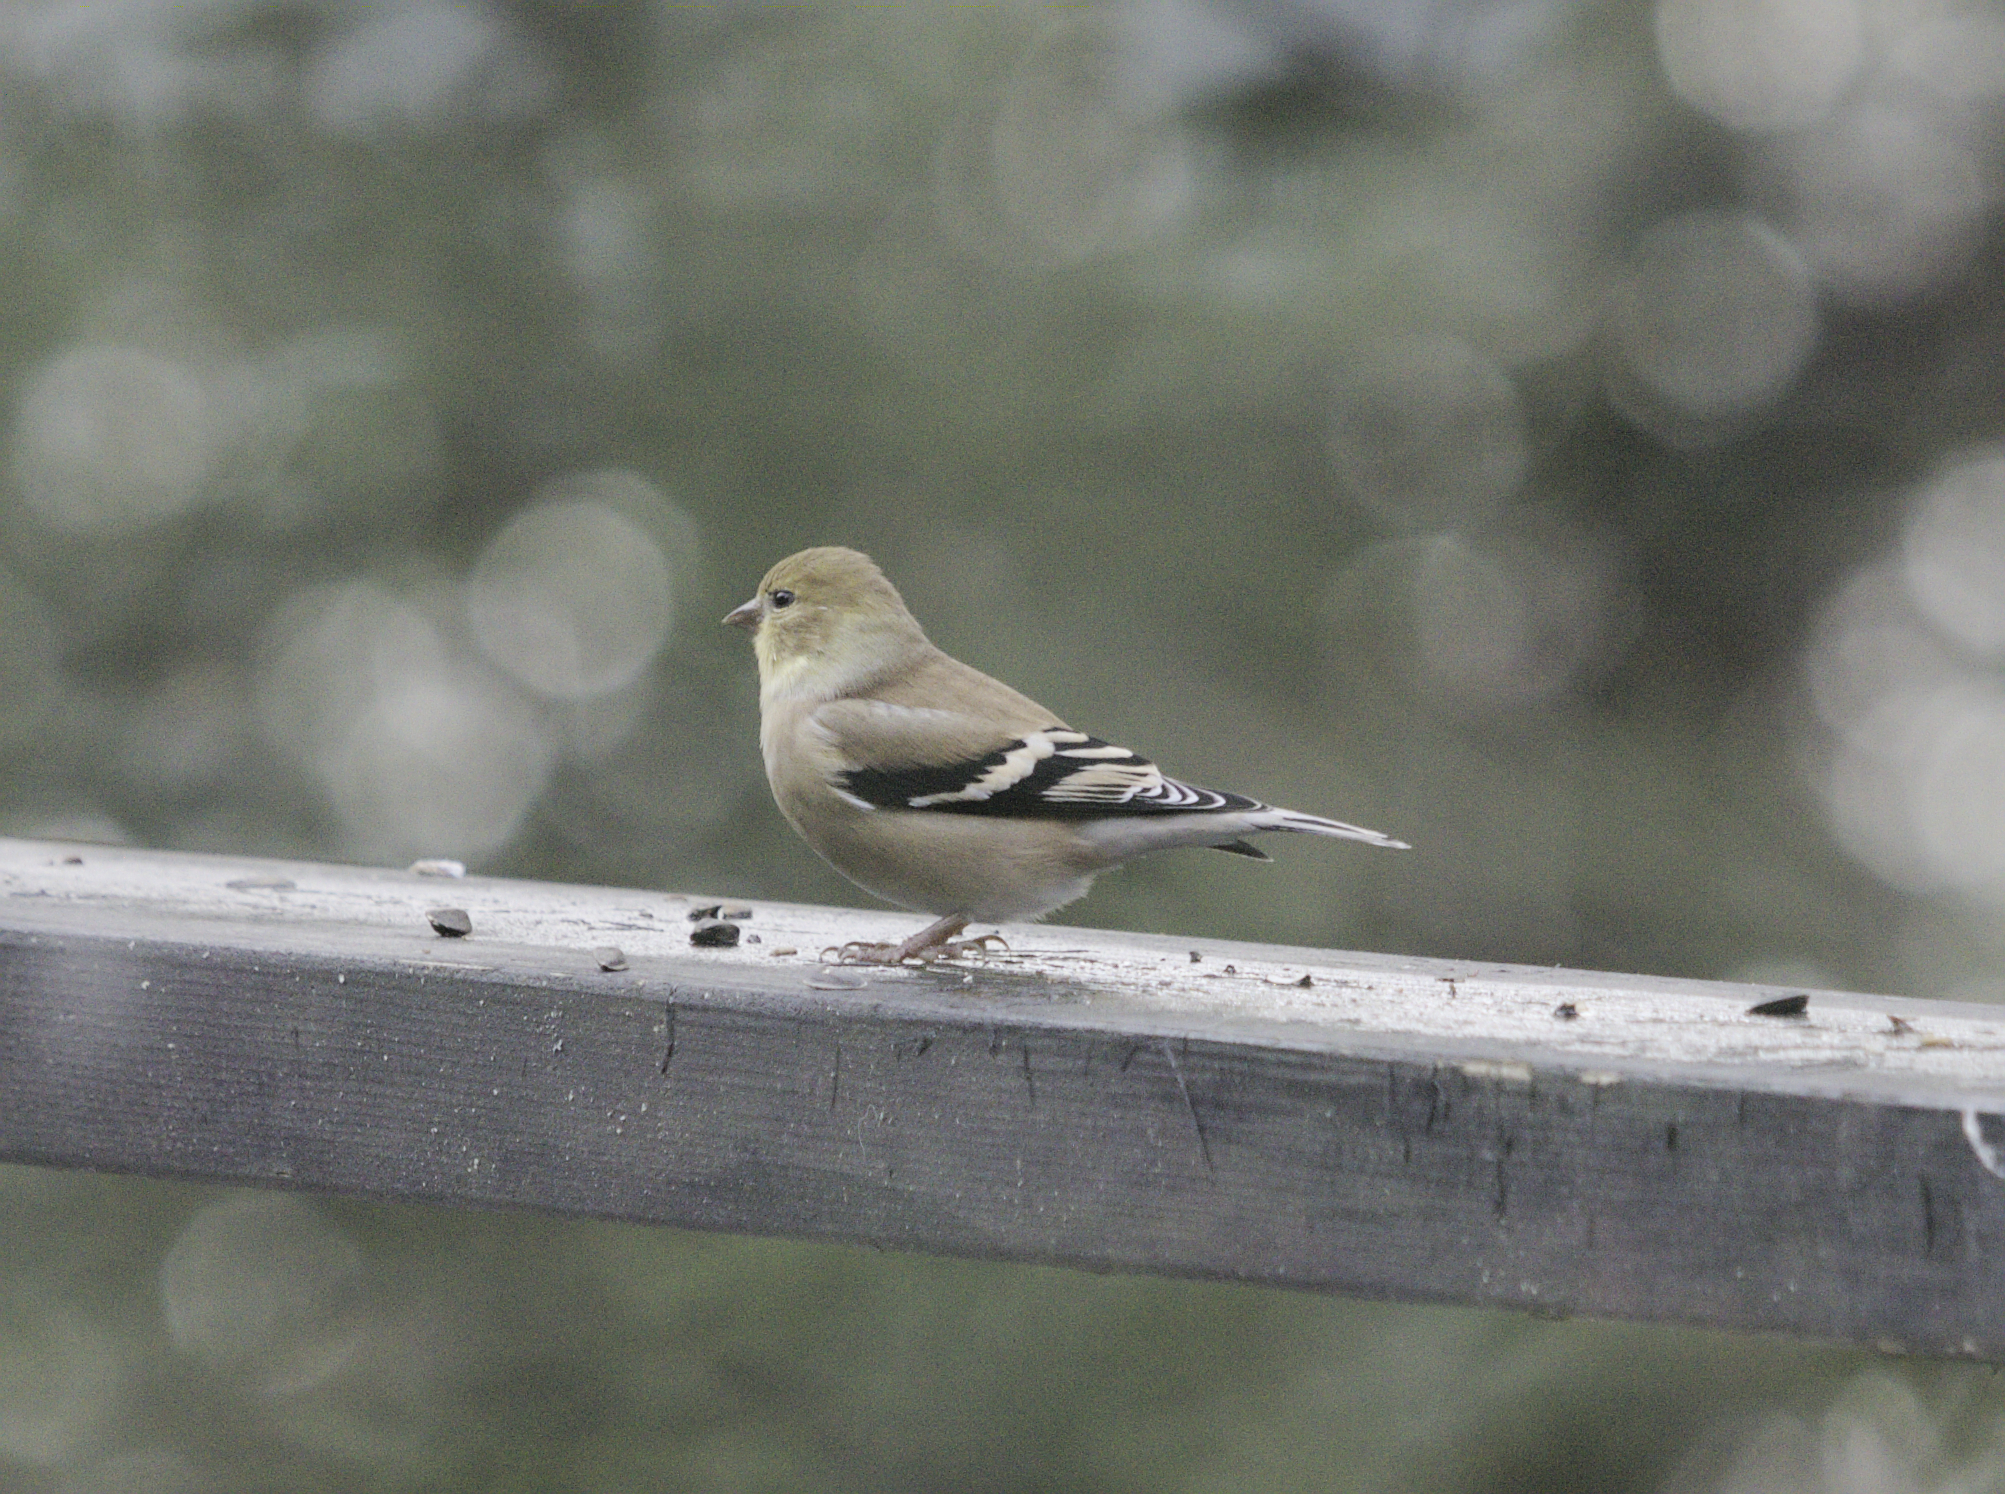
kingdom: Animalia
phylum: Chordata
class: Aves
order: Passeriformes
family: Fringillidae
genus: Spinus
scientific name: Spinus tristis
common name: American goldfinch
